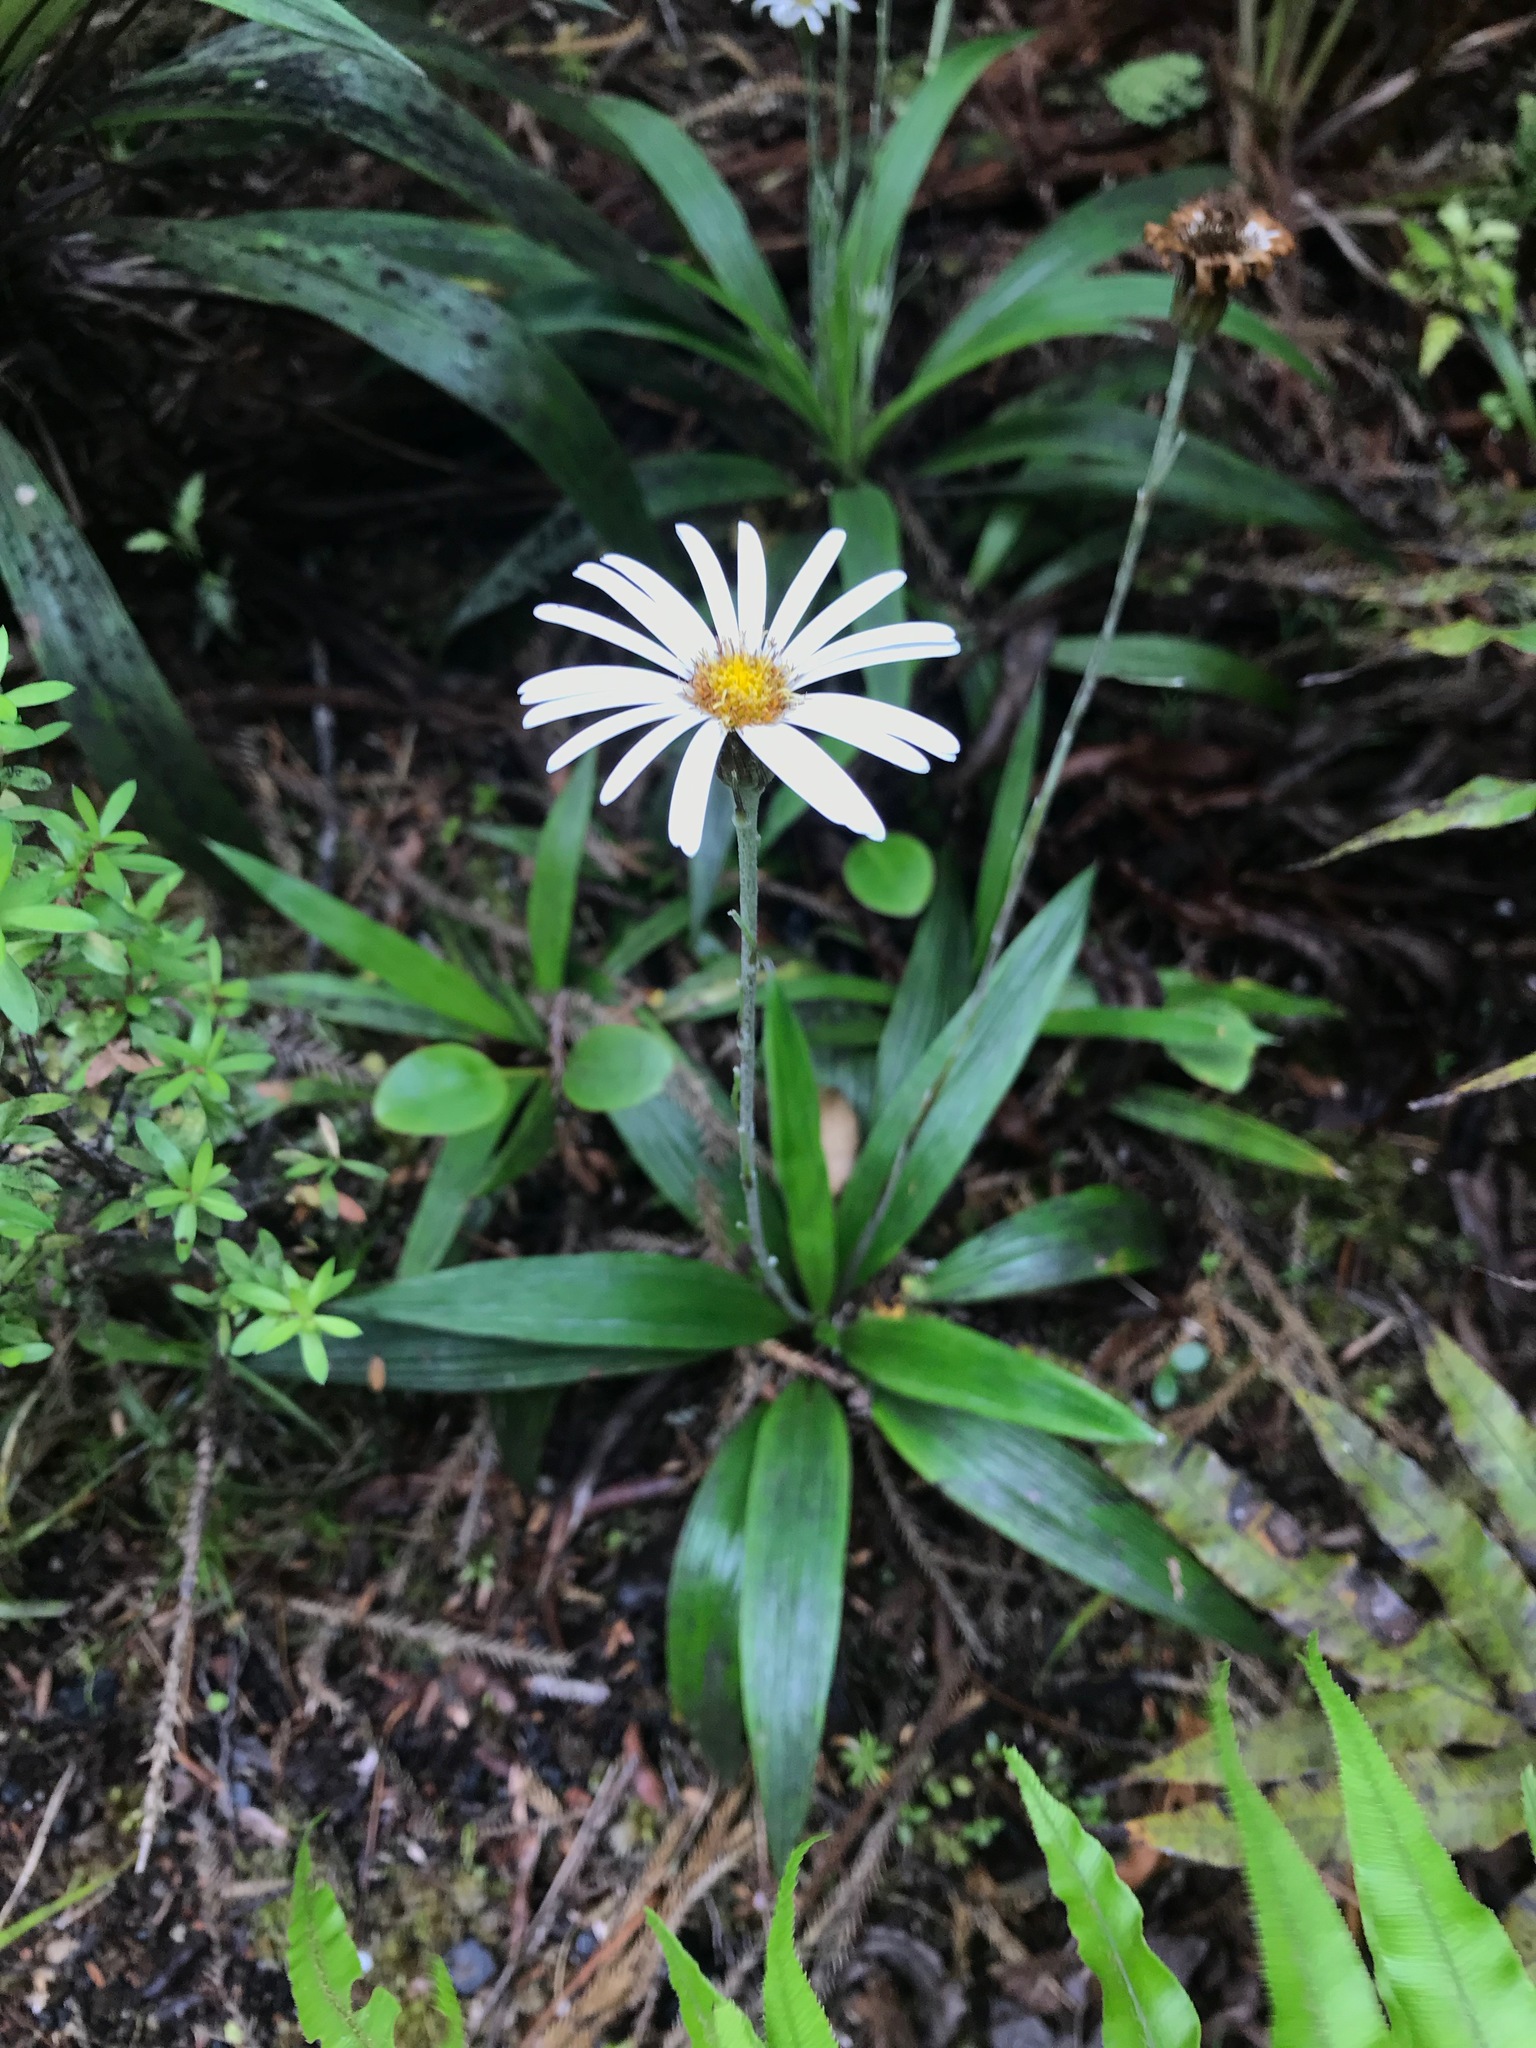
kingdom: Plantae
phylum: Tracheophyta
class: Magnoliopsida
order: Asterales
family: Asteraceae
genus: Celmisia
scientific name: Celmisia morganii
